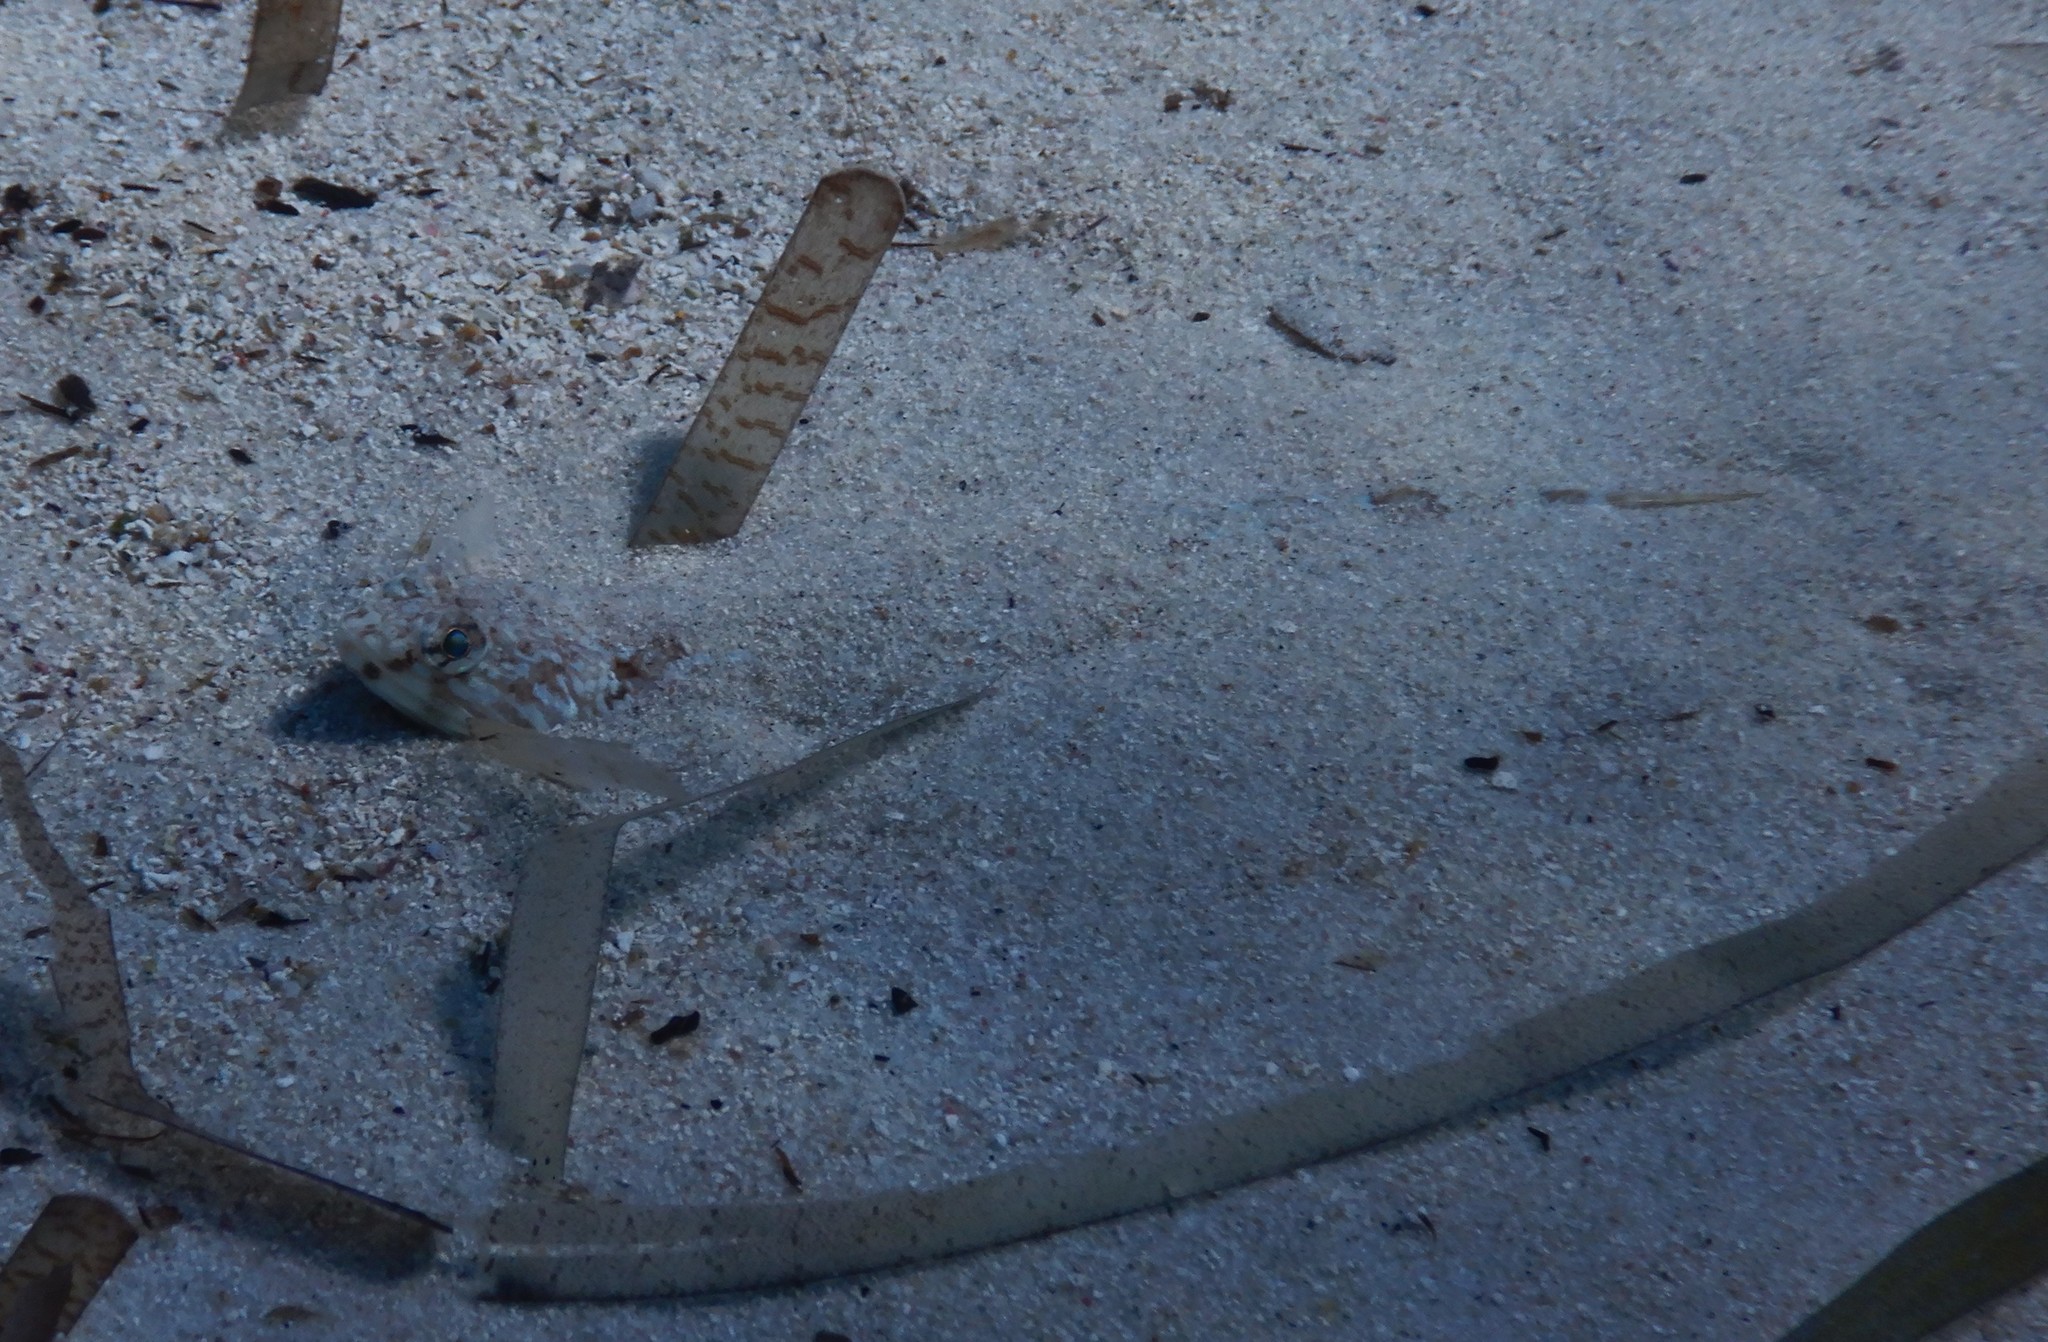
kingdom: Animalia
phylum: Chordata
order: Aulopiformes
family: Synodontidae
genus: Synodus
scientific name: Synodus saurus
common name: Atlantic lizardfish
